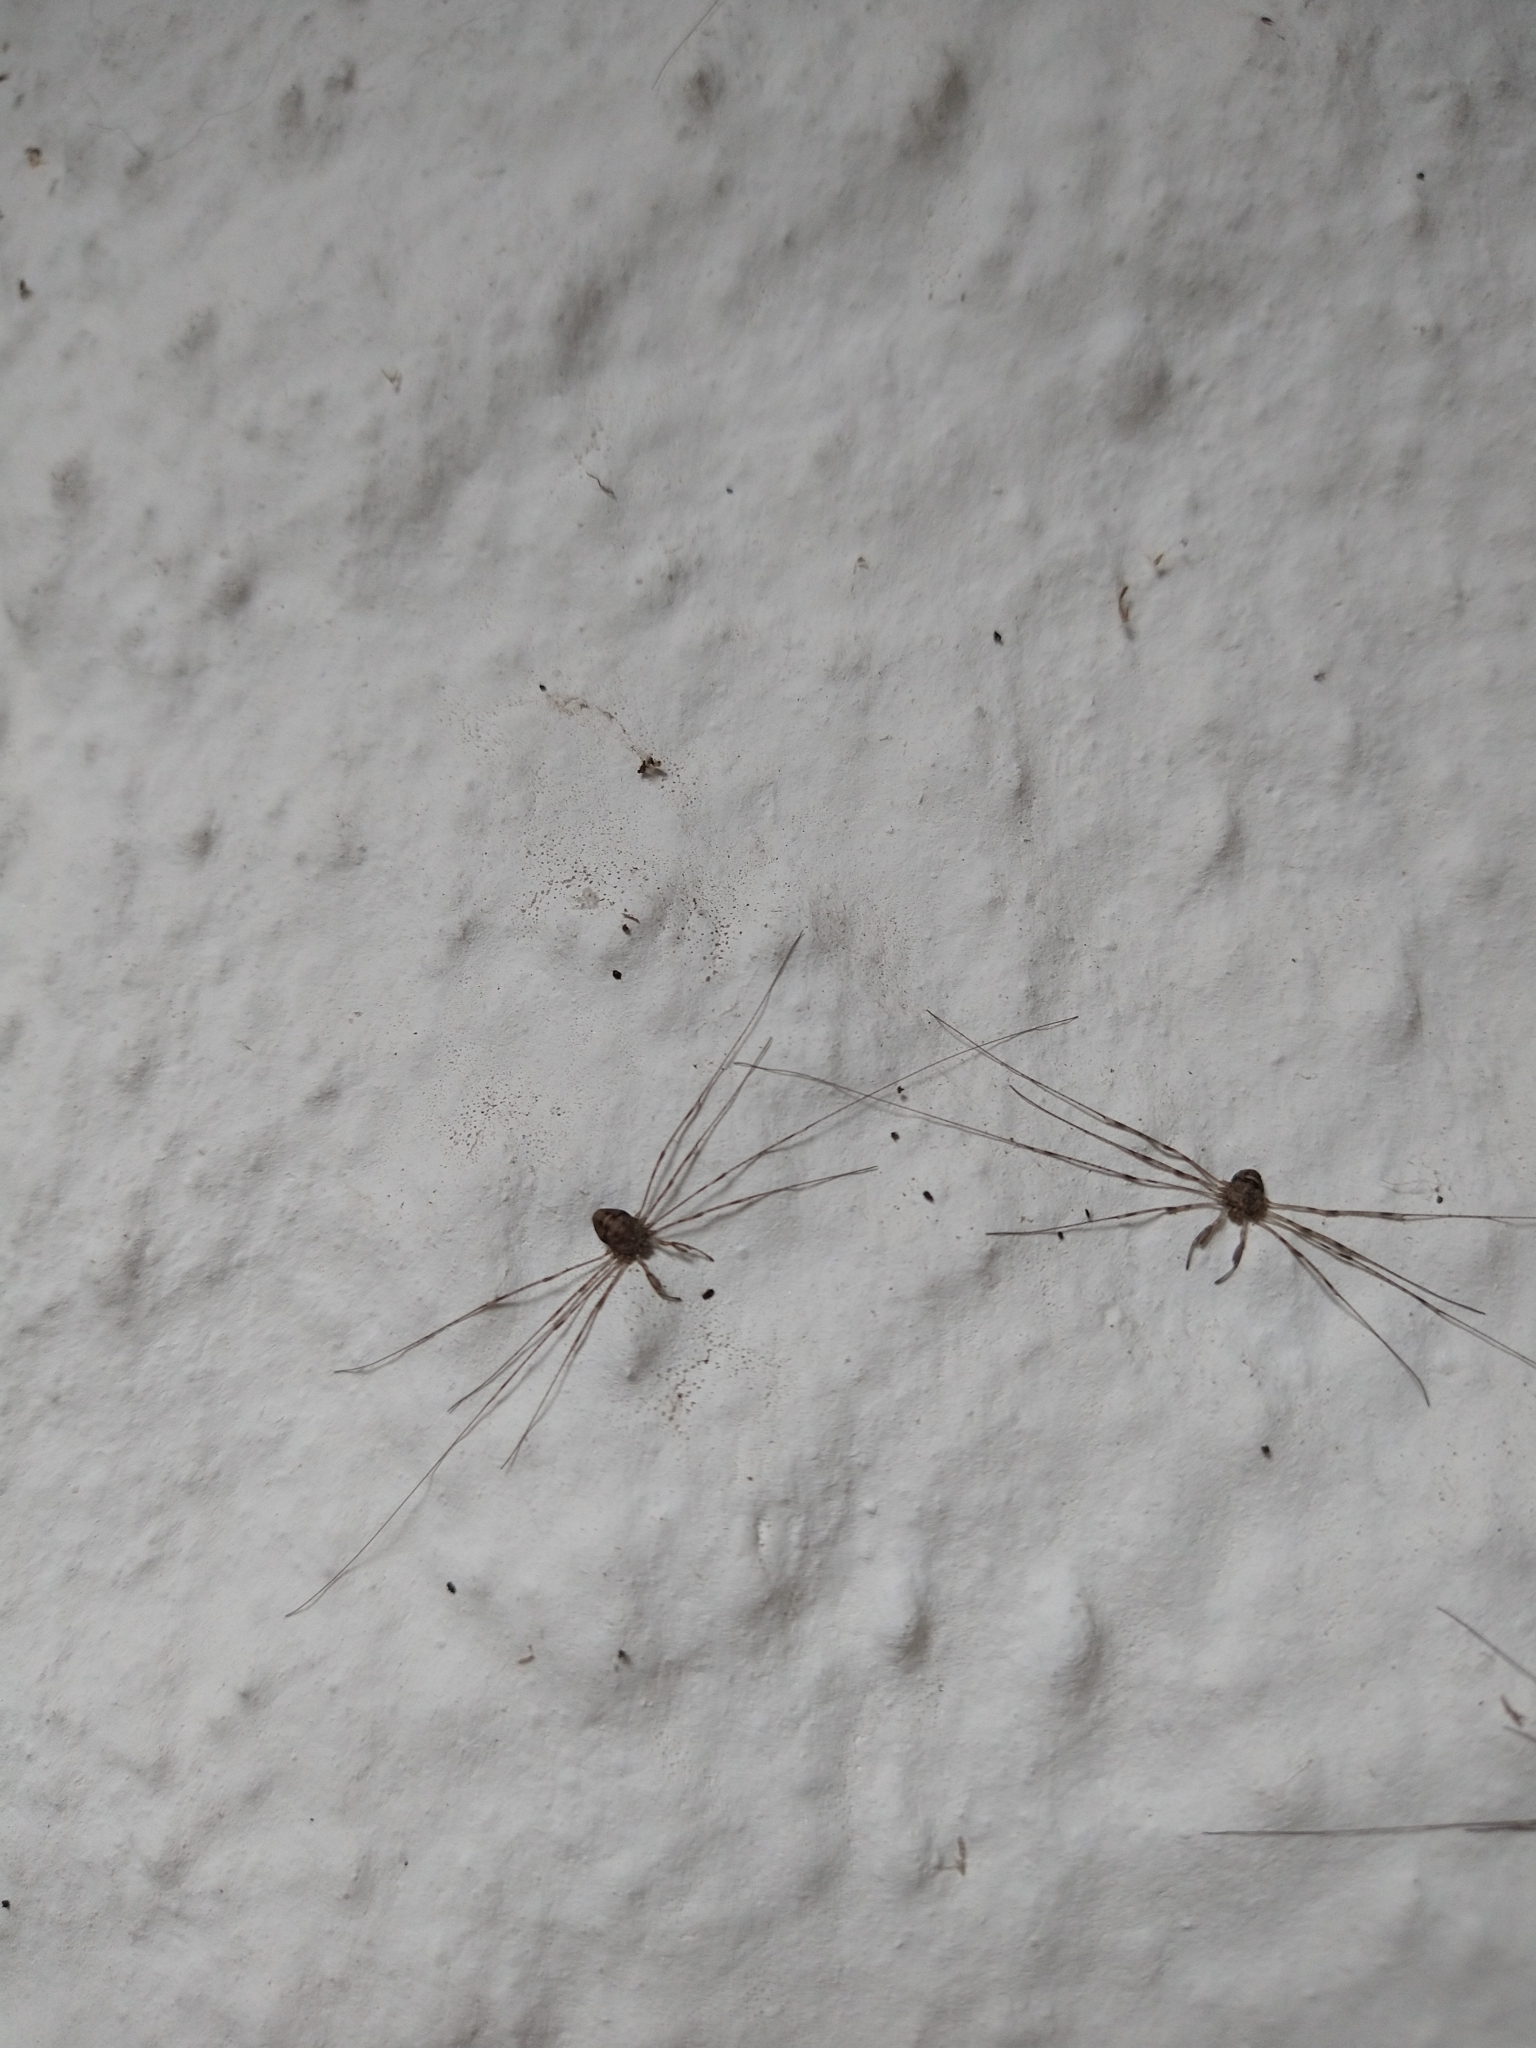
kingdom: Animalia
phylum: Arthropoda
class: Arachnida
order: Opiliones
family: Phalangiidae
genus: Dicranopalpus
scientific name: Dicranopalpus ramosus
